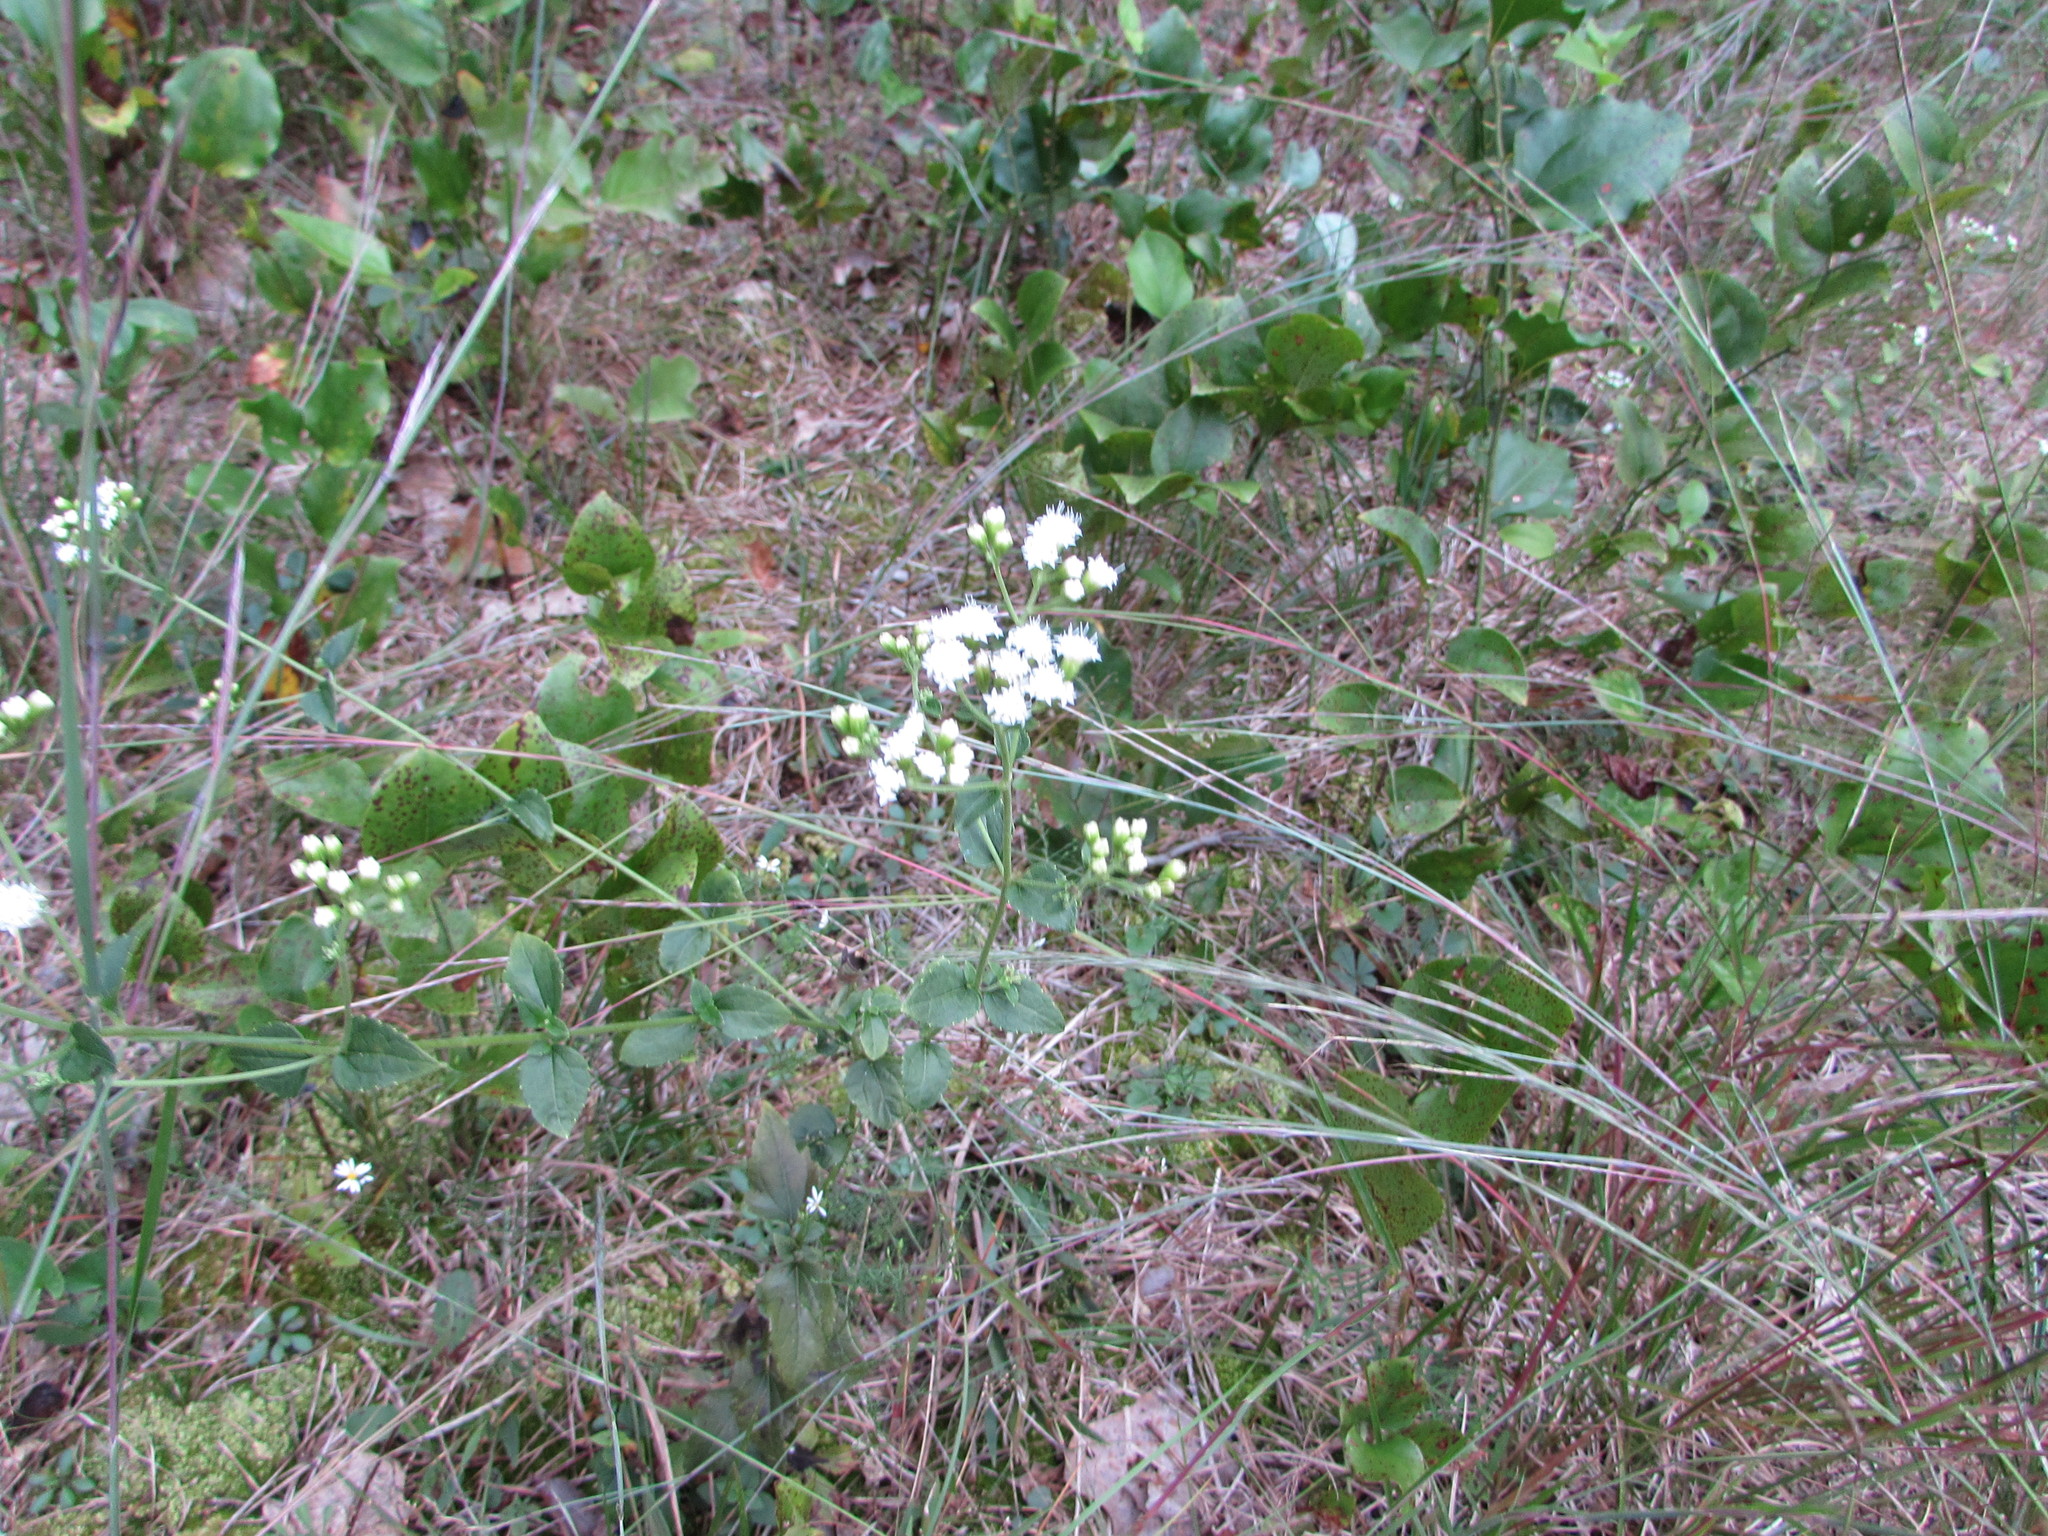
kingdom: Plantae
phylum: Tracheophyta
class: Magnoliopsida
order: Asterales
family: Asteraceae
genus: Ageratina
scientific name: Ageratina aromatica
